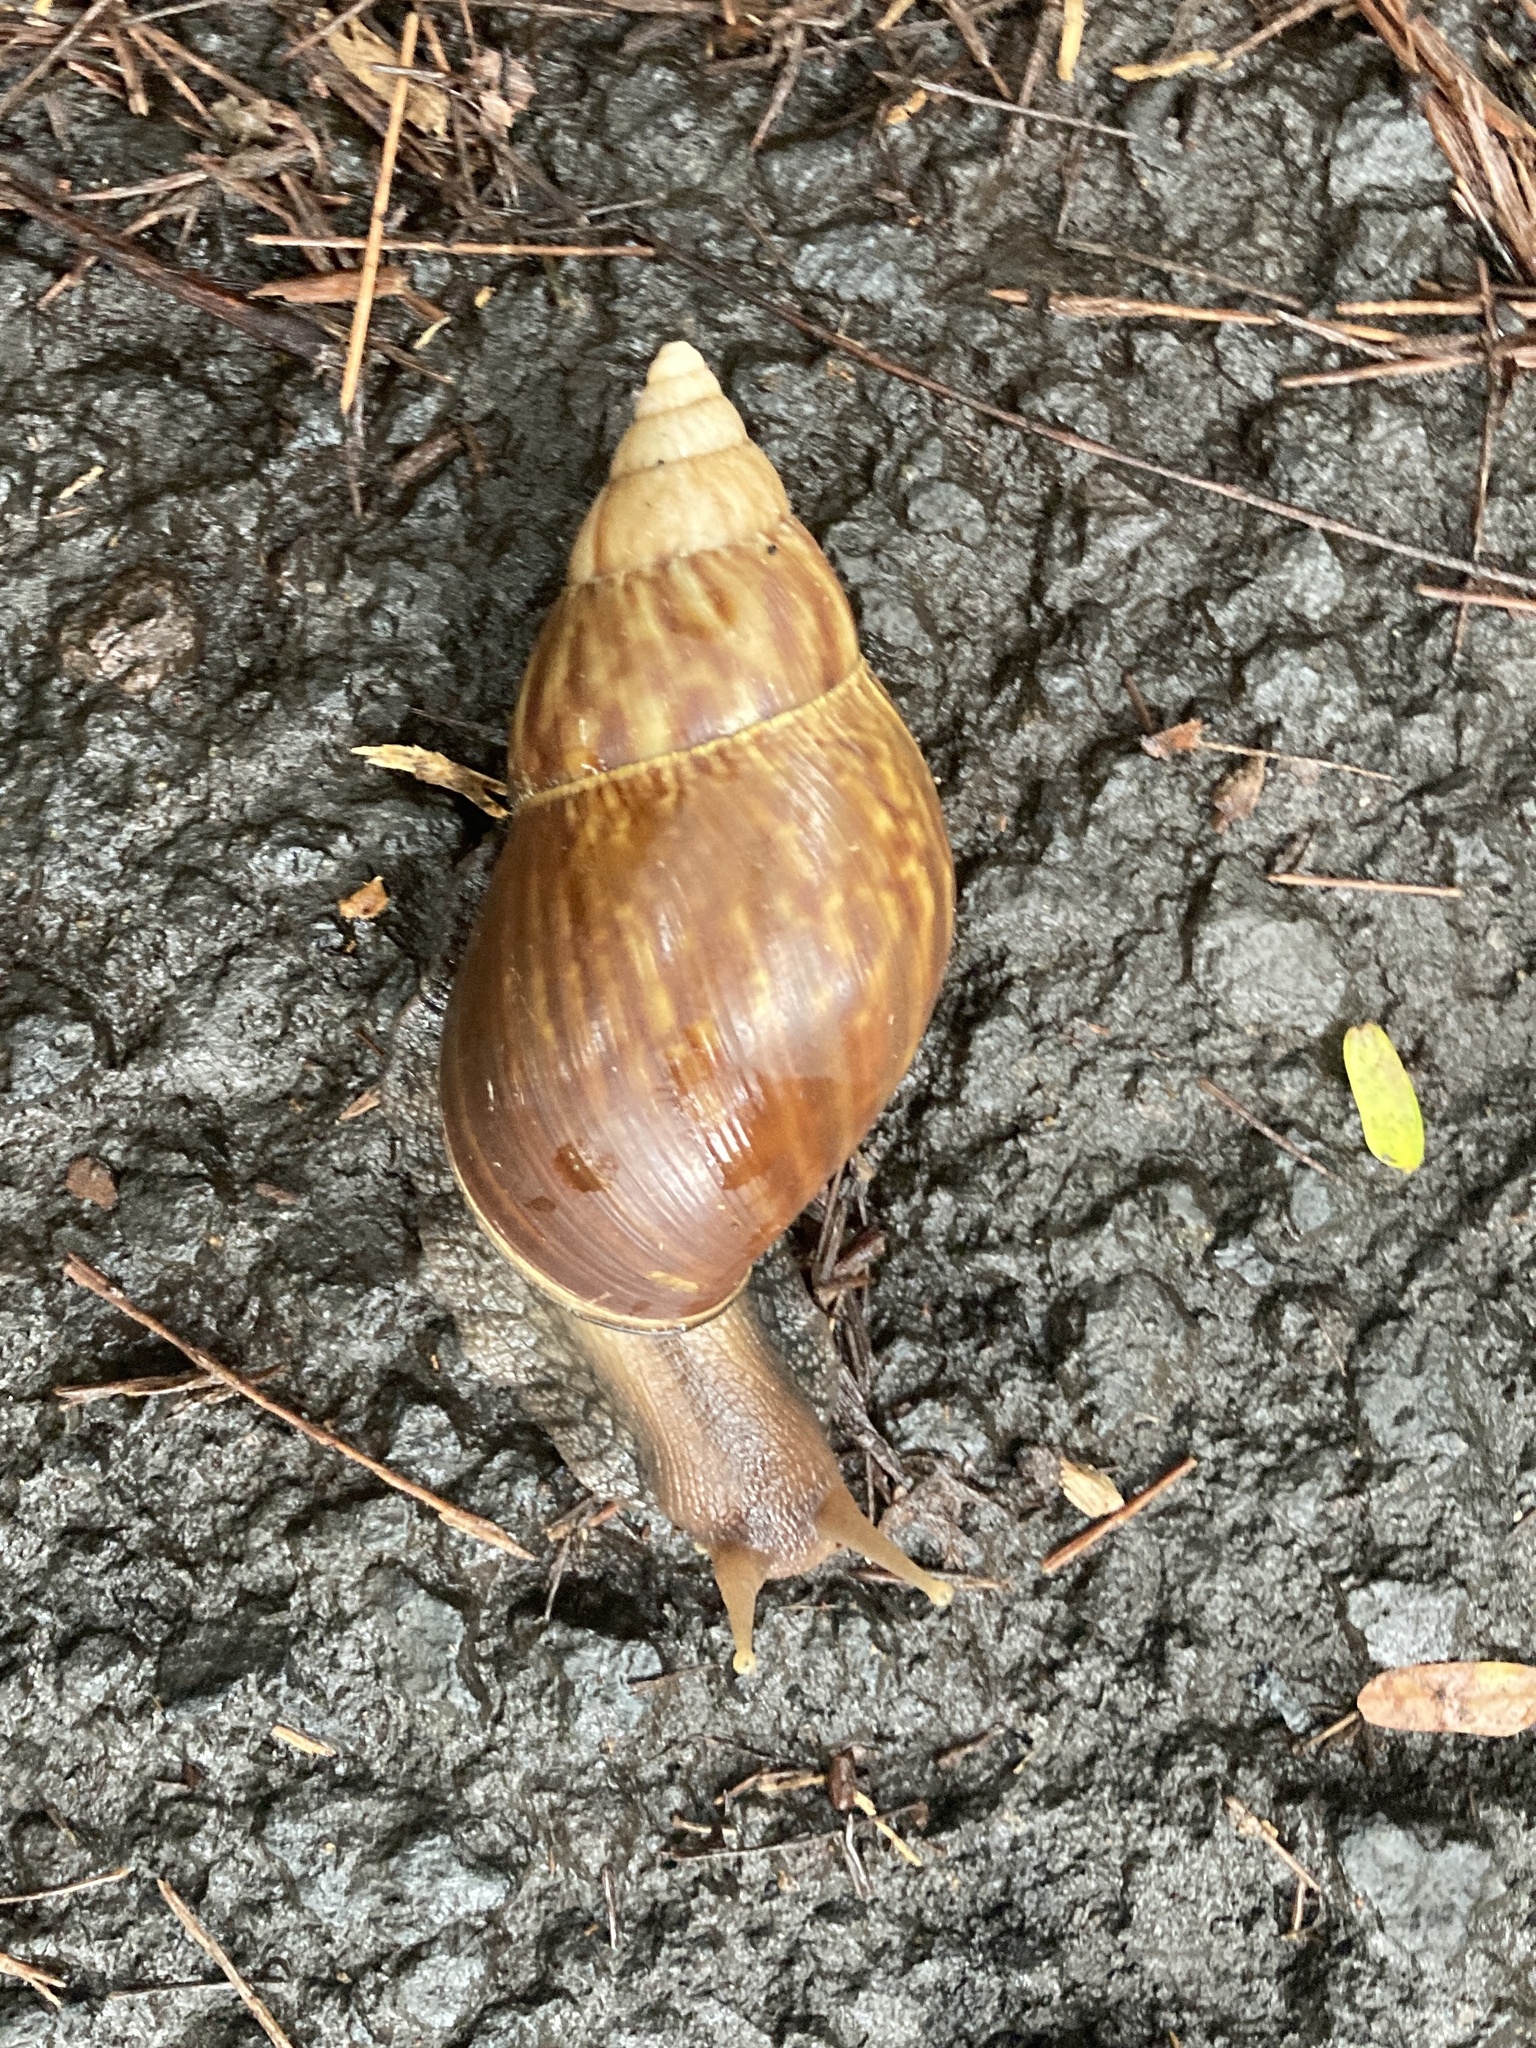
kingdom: Animalia
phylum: Mollusca
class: Gastropoda
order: Stylommatophora
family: Achatinidae
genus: Lissachatina
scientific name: Lissachatina fulica
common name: Giant african snail
